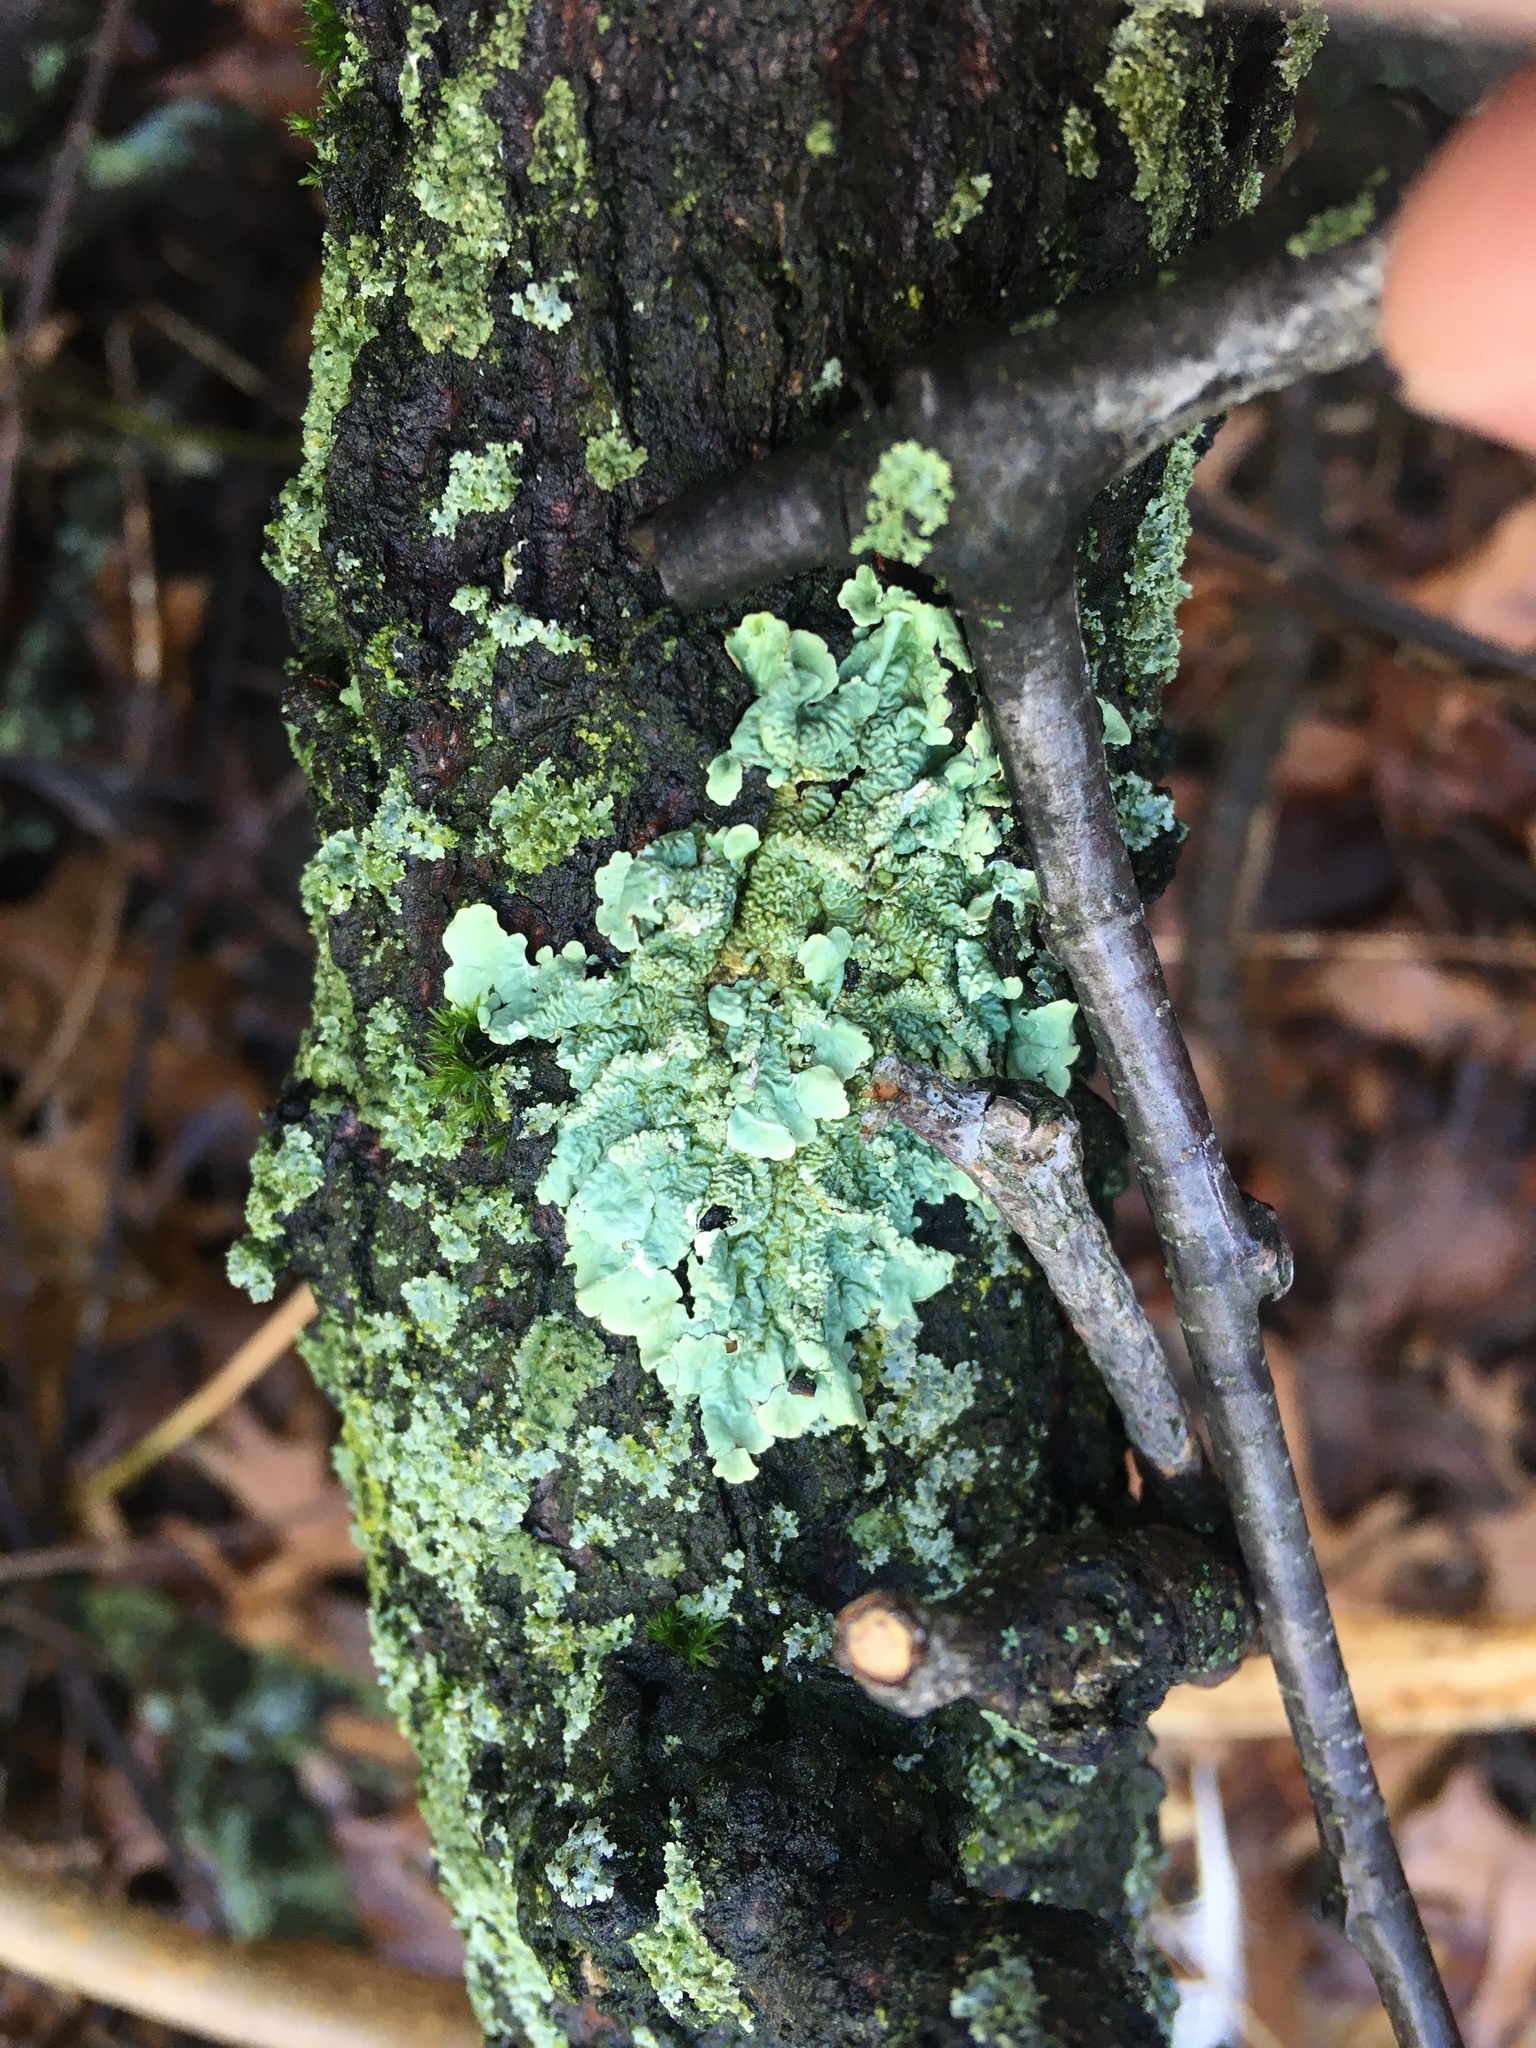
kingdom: Fungi
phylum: Ascomycota
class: Lecanoromycetes
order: Lecanorales
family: Parmeliaceae
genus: Flavoparmelia
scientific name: Flavoparmelia caperata
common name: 40-mile per hour lichen
